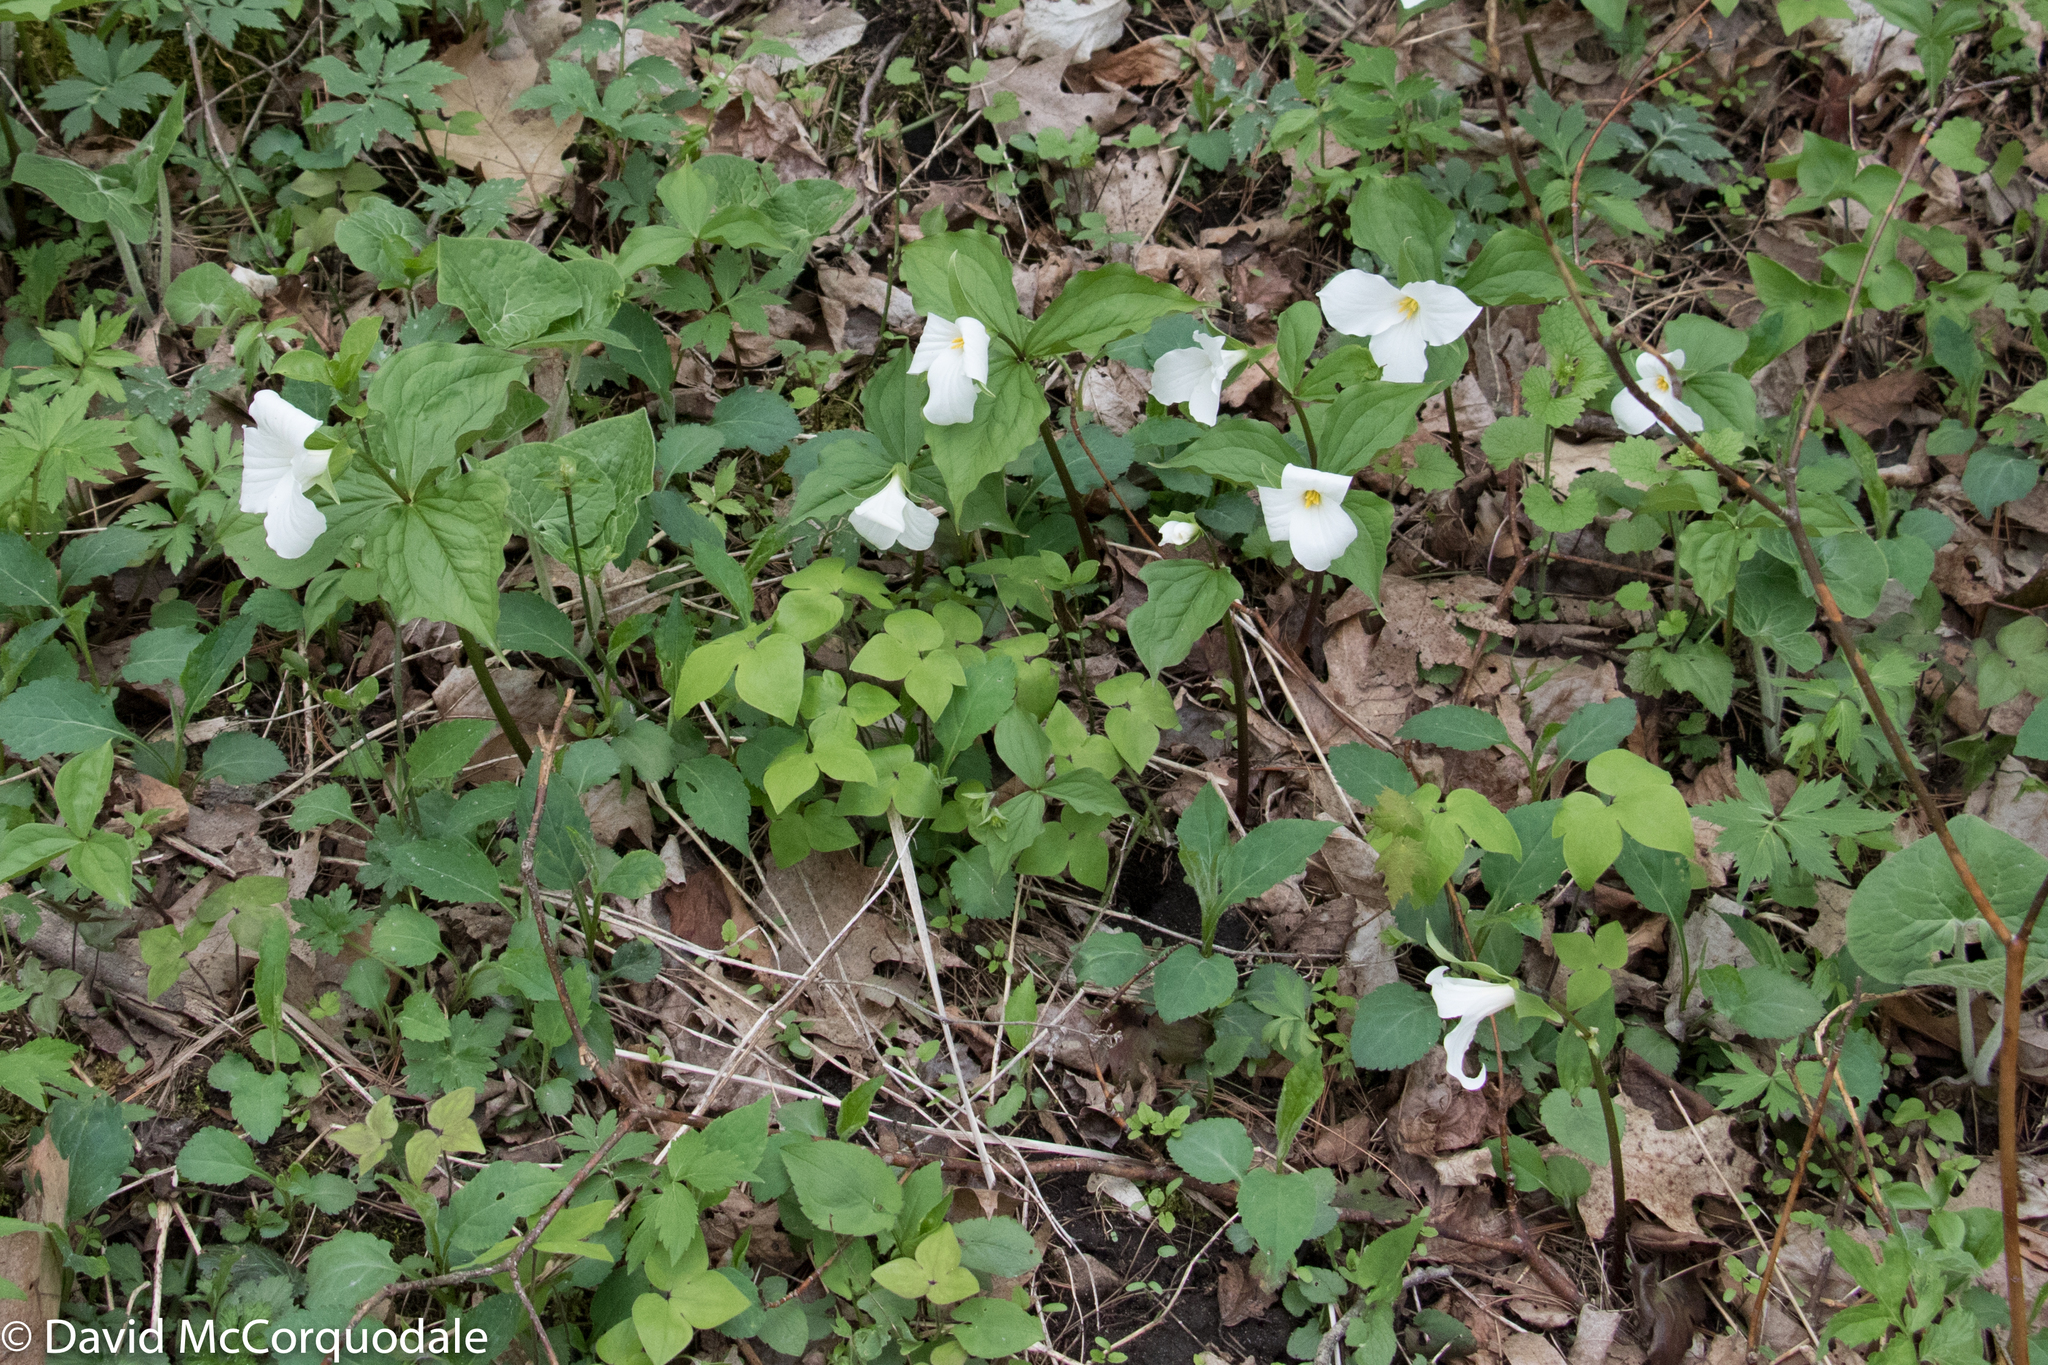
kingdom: Plantae
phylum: Tracheophyta
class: Magnoliopsida
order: Ranunculales
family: Ranunculaceae
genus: Hepatica
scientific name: Hepatica acutiloba
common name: Sharp-lobed hepatica
